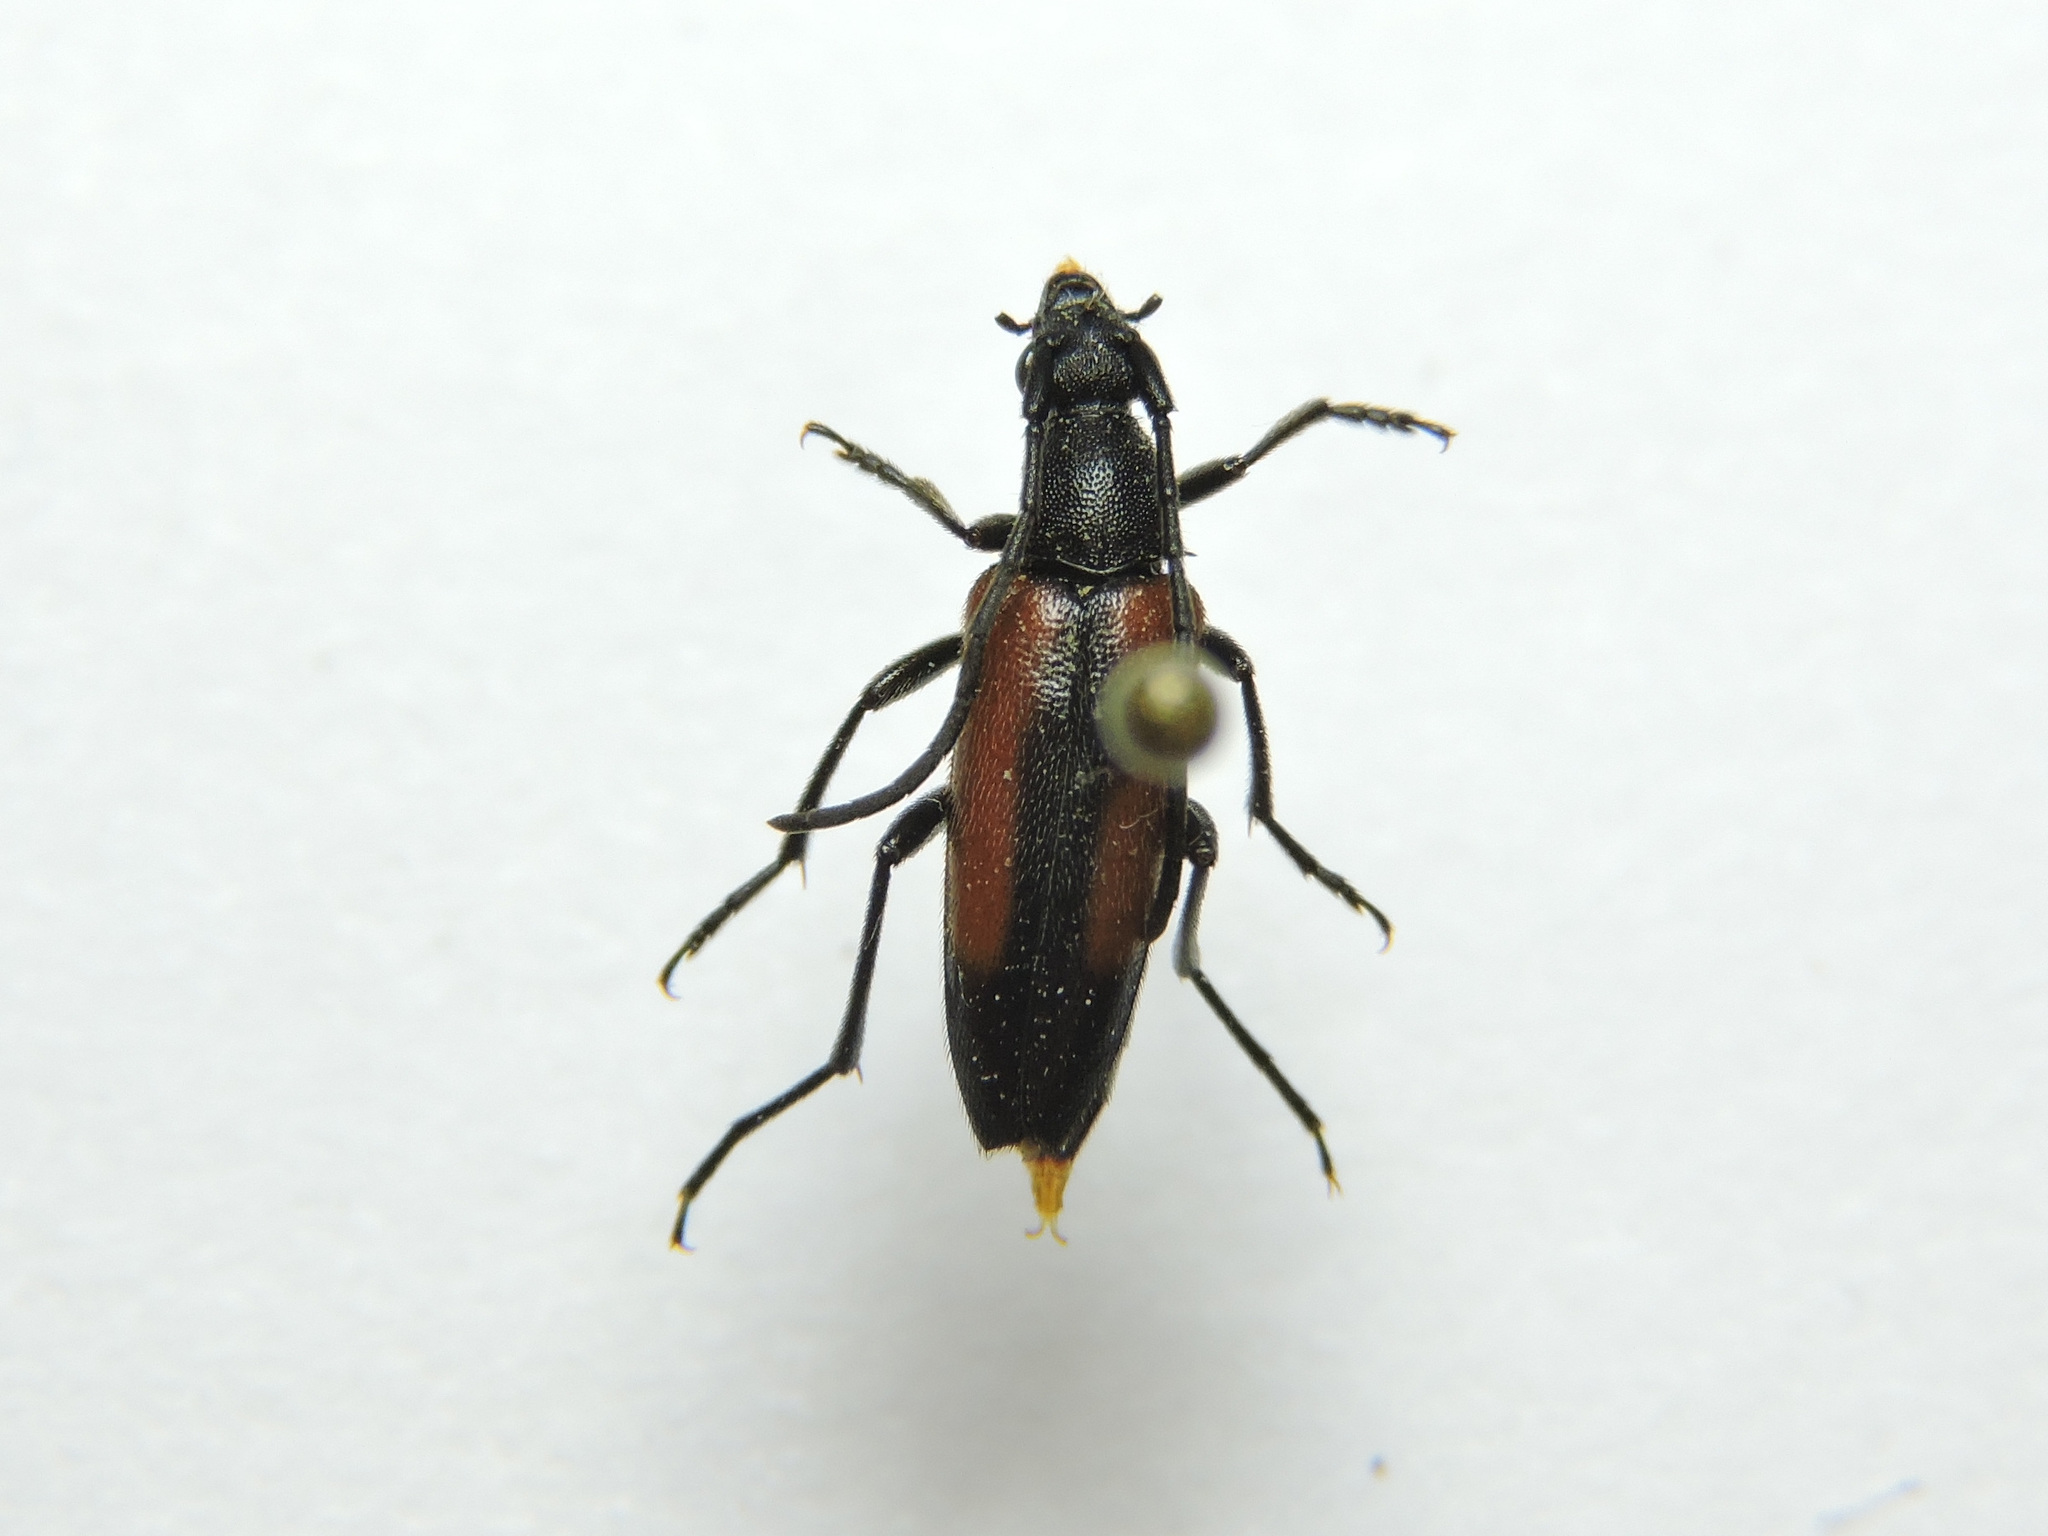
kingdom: Animalia
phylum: Arthropoda
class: Insecta
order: Coleoptera
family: Cerambycidae
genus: Stenurella
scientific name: Stenurella melanura
